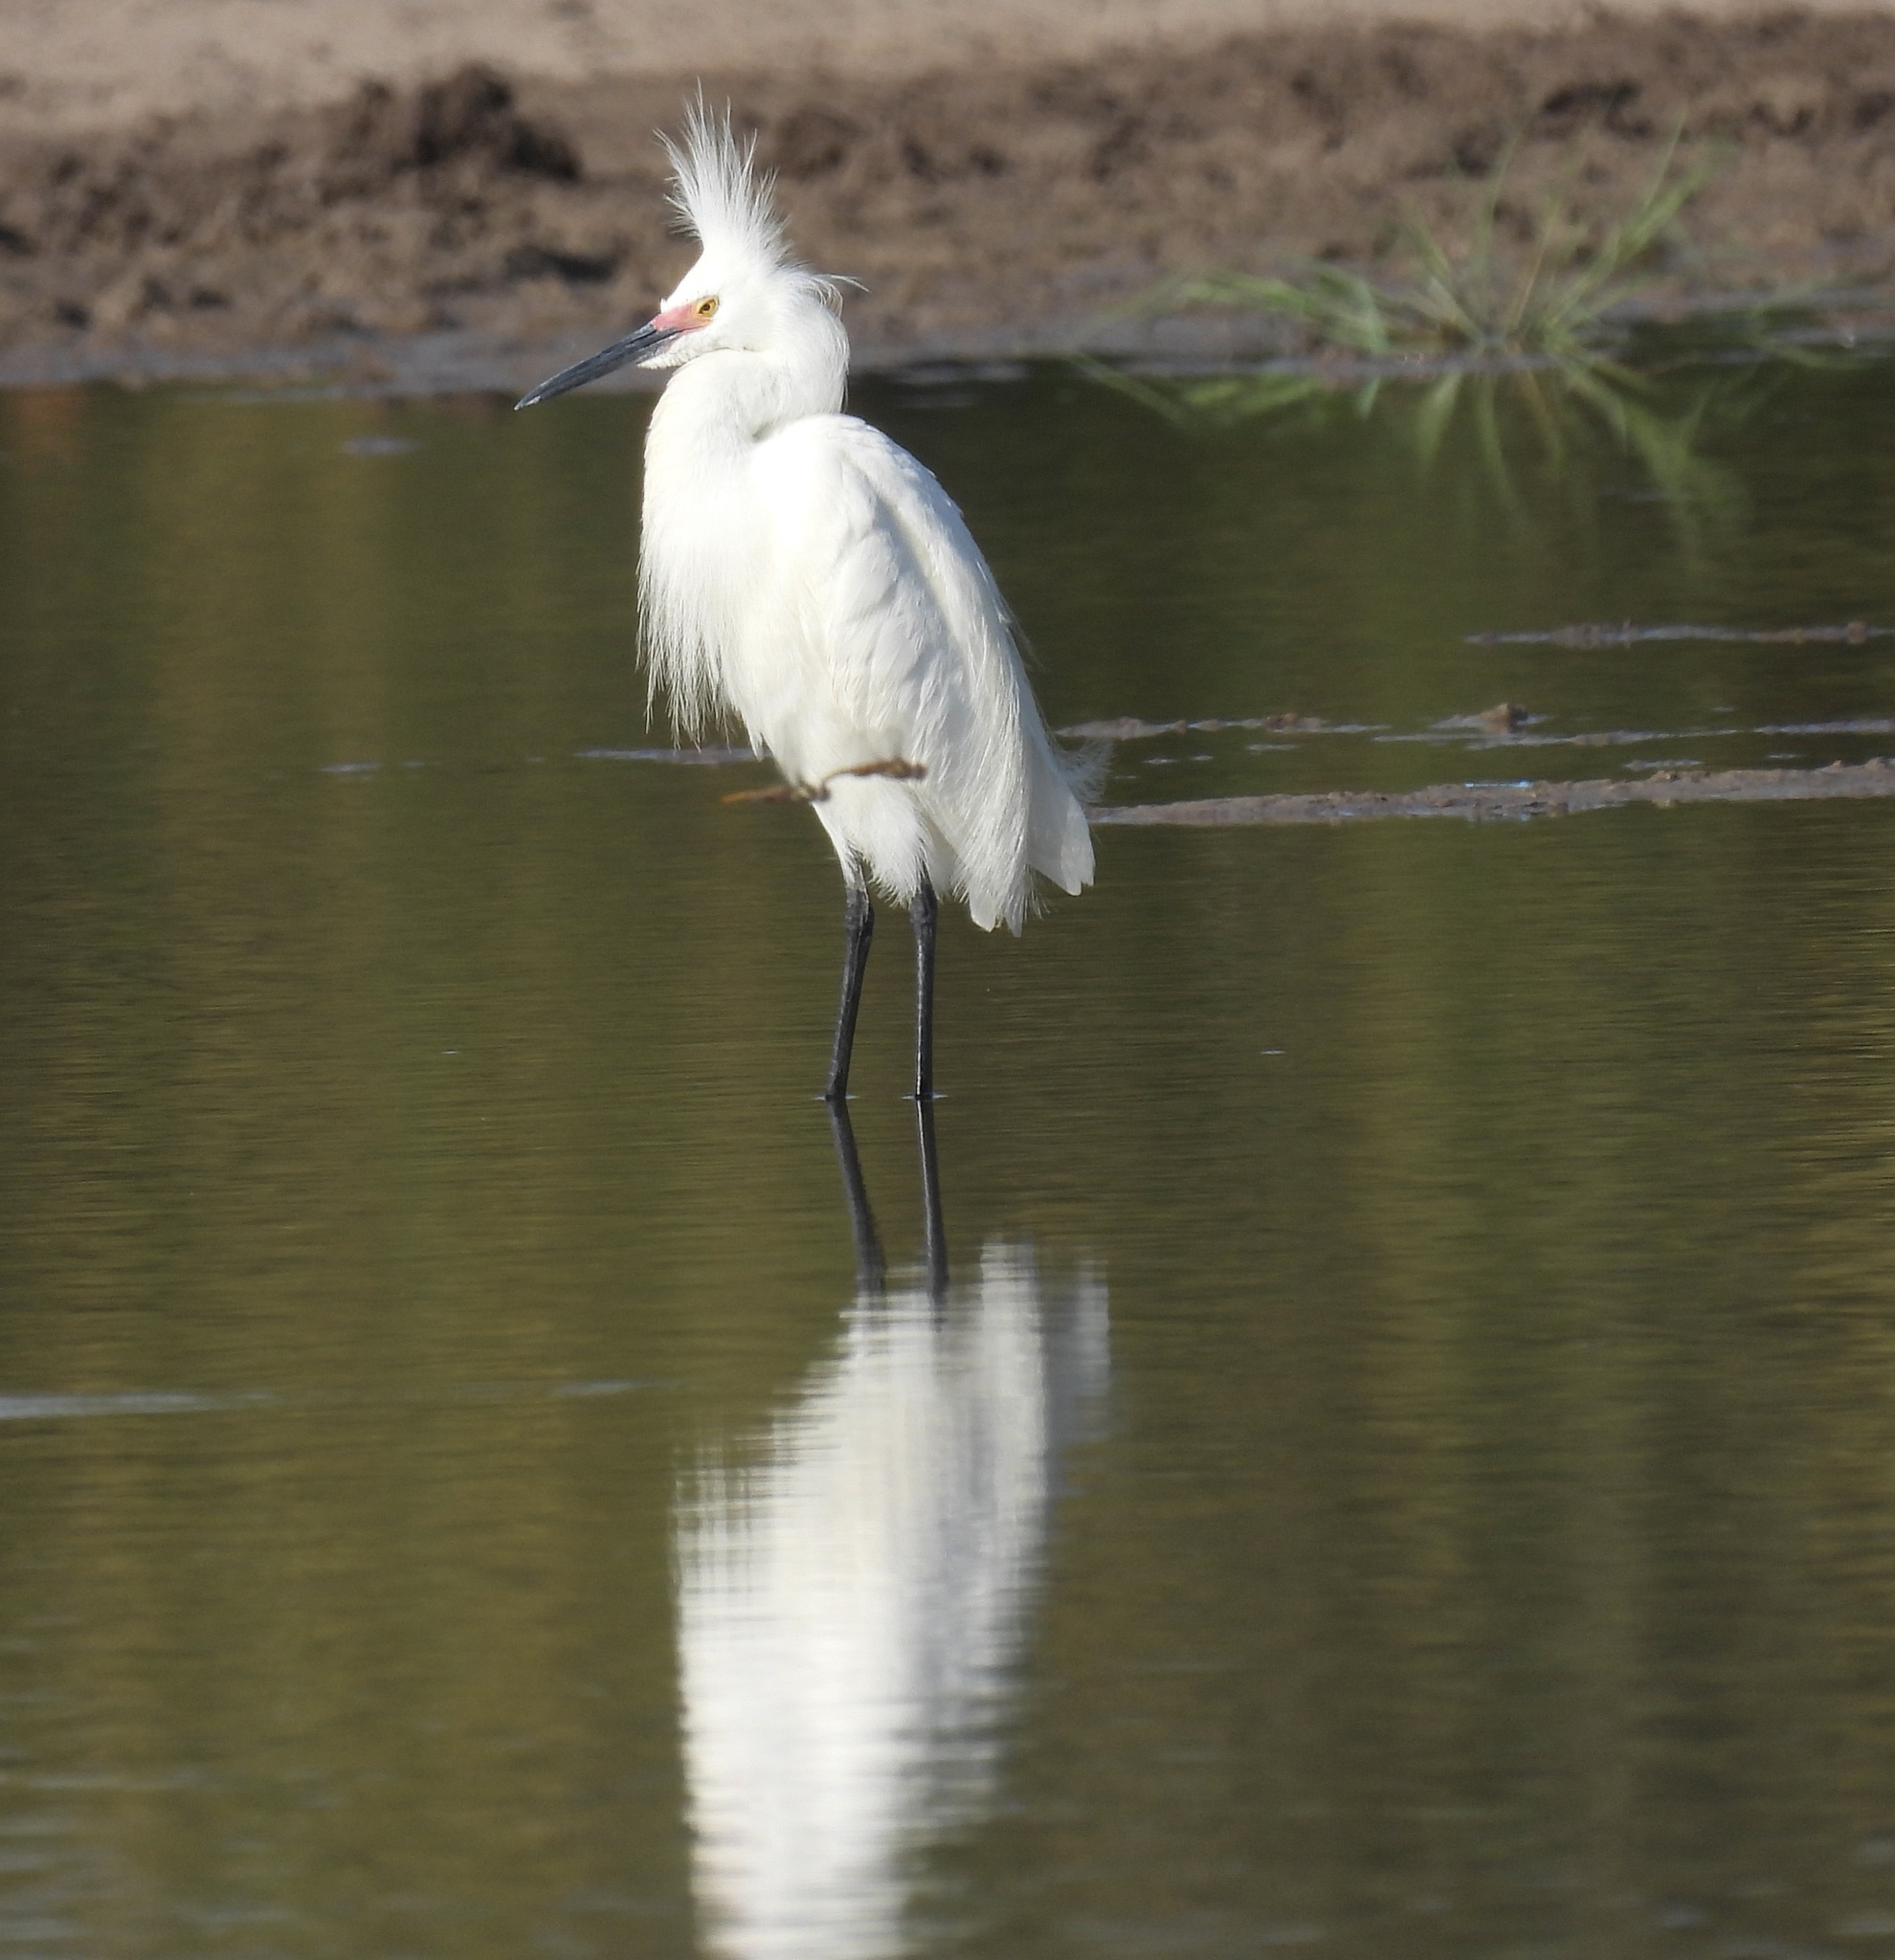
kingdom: Animalia
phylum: Chordata
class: Aves
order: Pelecaniformes
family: Ardeidae
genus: Egretta
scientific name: Egretta thula
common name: Snowy egret
